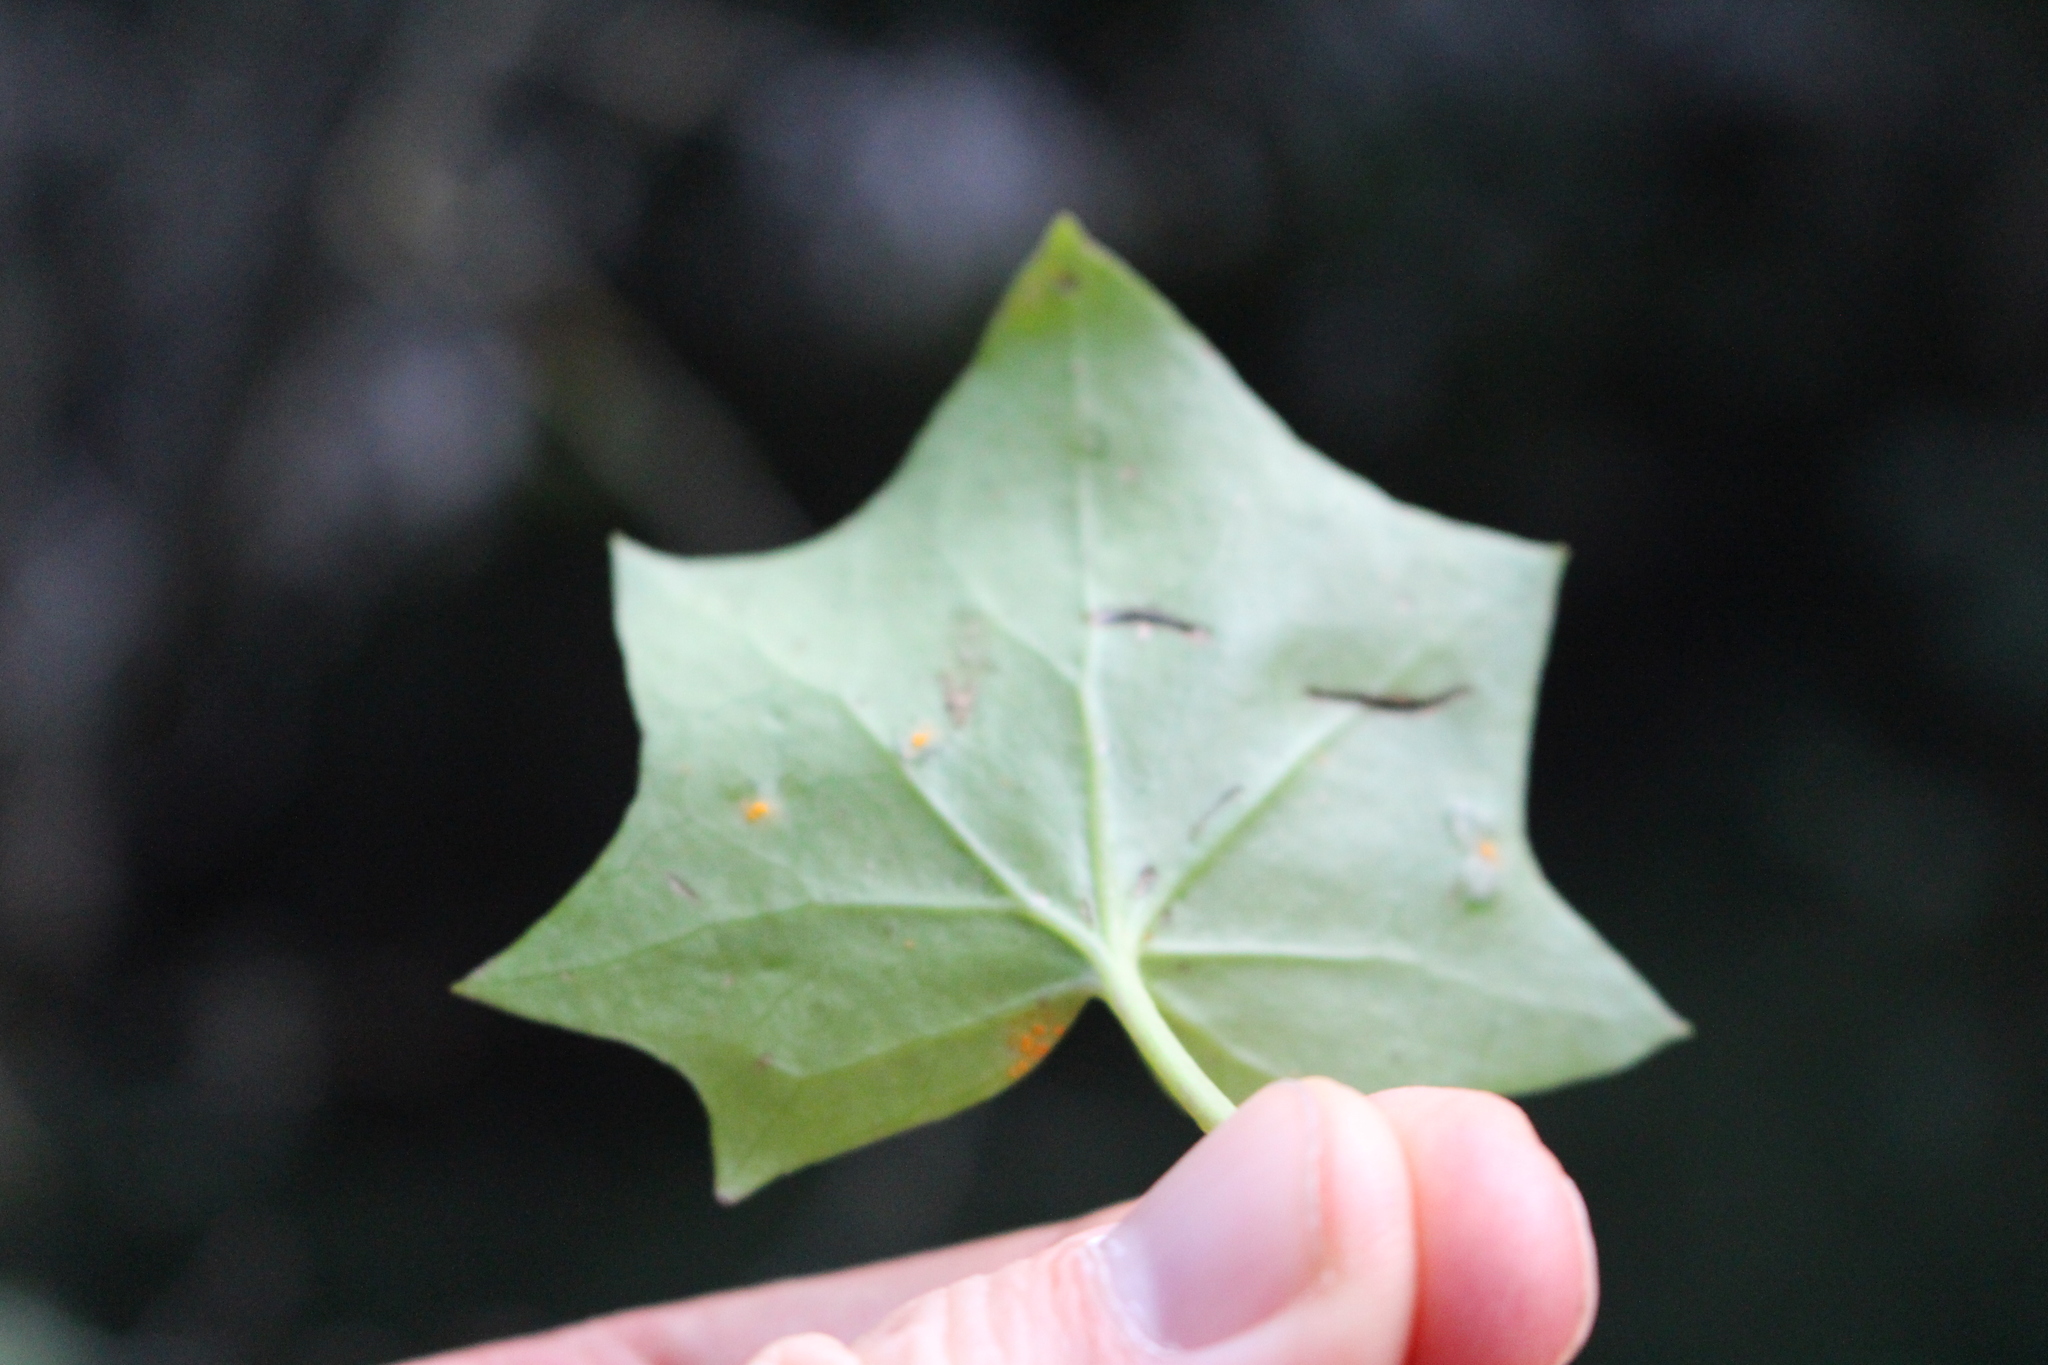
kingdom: Plantae
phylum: Tracheophyta
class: Magnoliopsida
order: Asterales
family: Asteraceae
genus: Delairea
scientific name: Delairea odorata
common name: Cape-ivy
